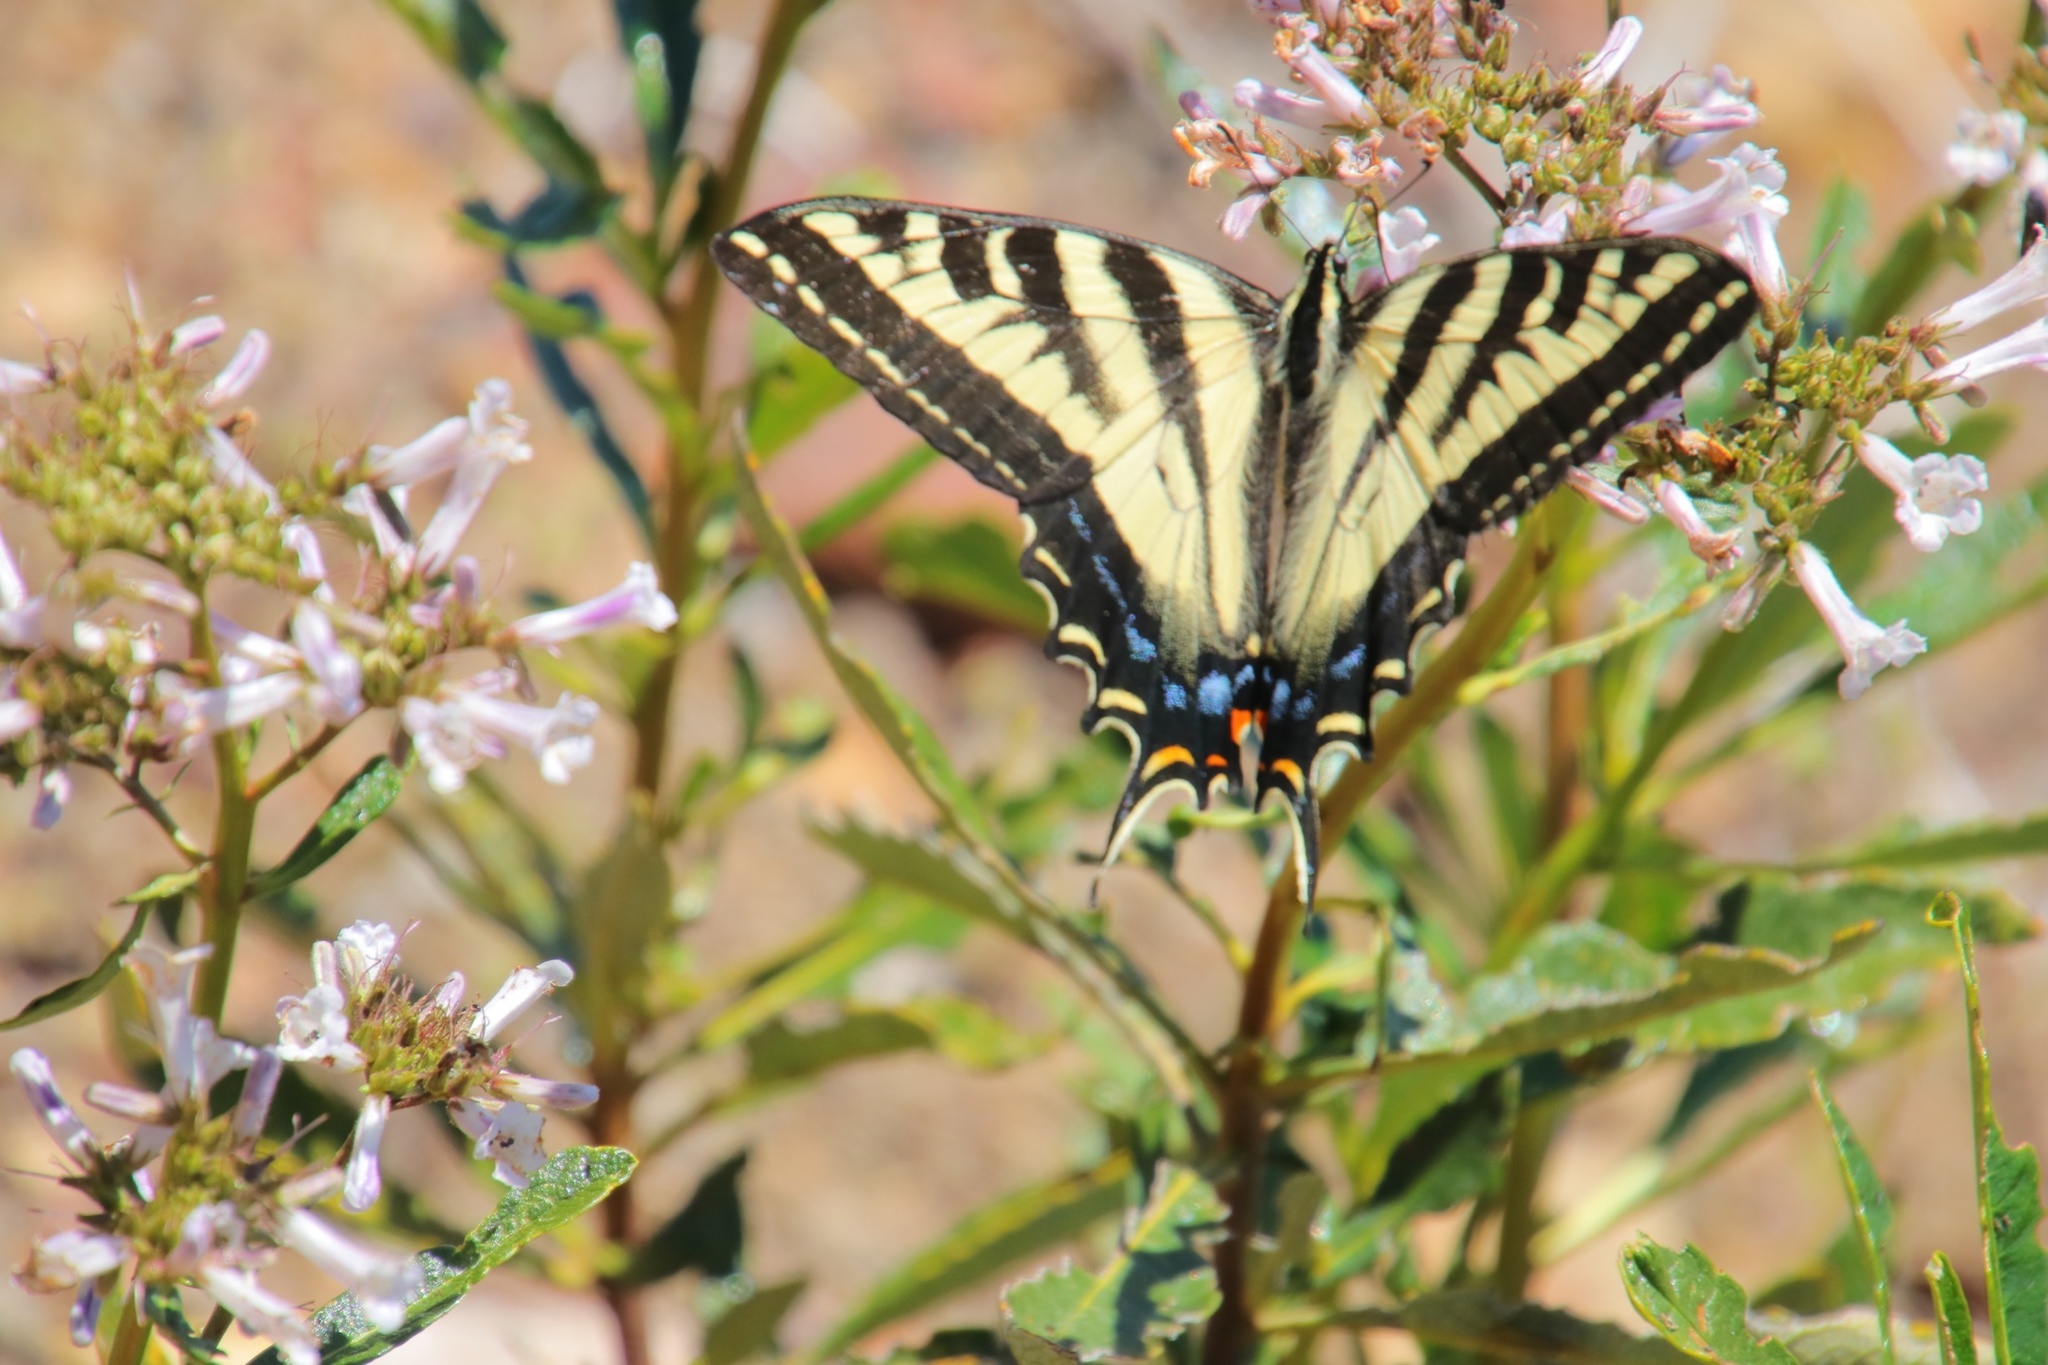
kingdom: Animalia
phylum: Arthropoda
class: Insecta
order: Lepidoptera
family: Papilionidae
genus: Papilio
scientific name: Papilio eurymedon
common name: Pale tiger swallowtail
